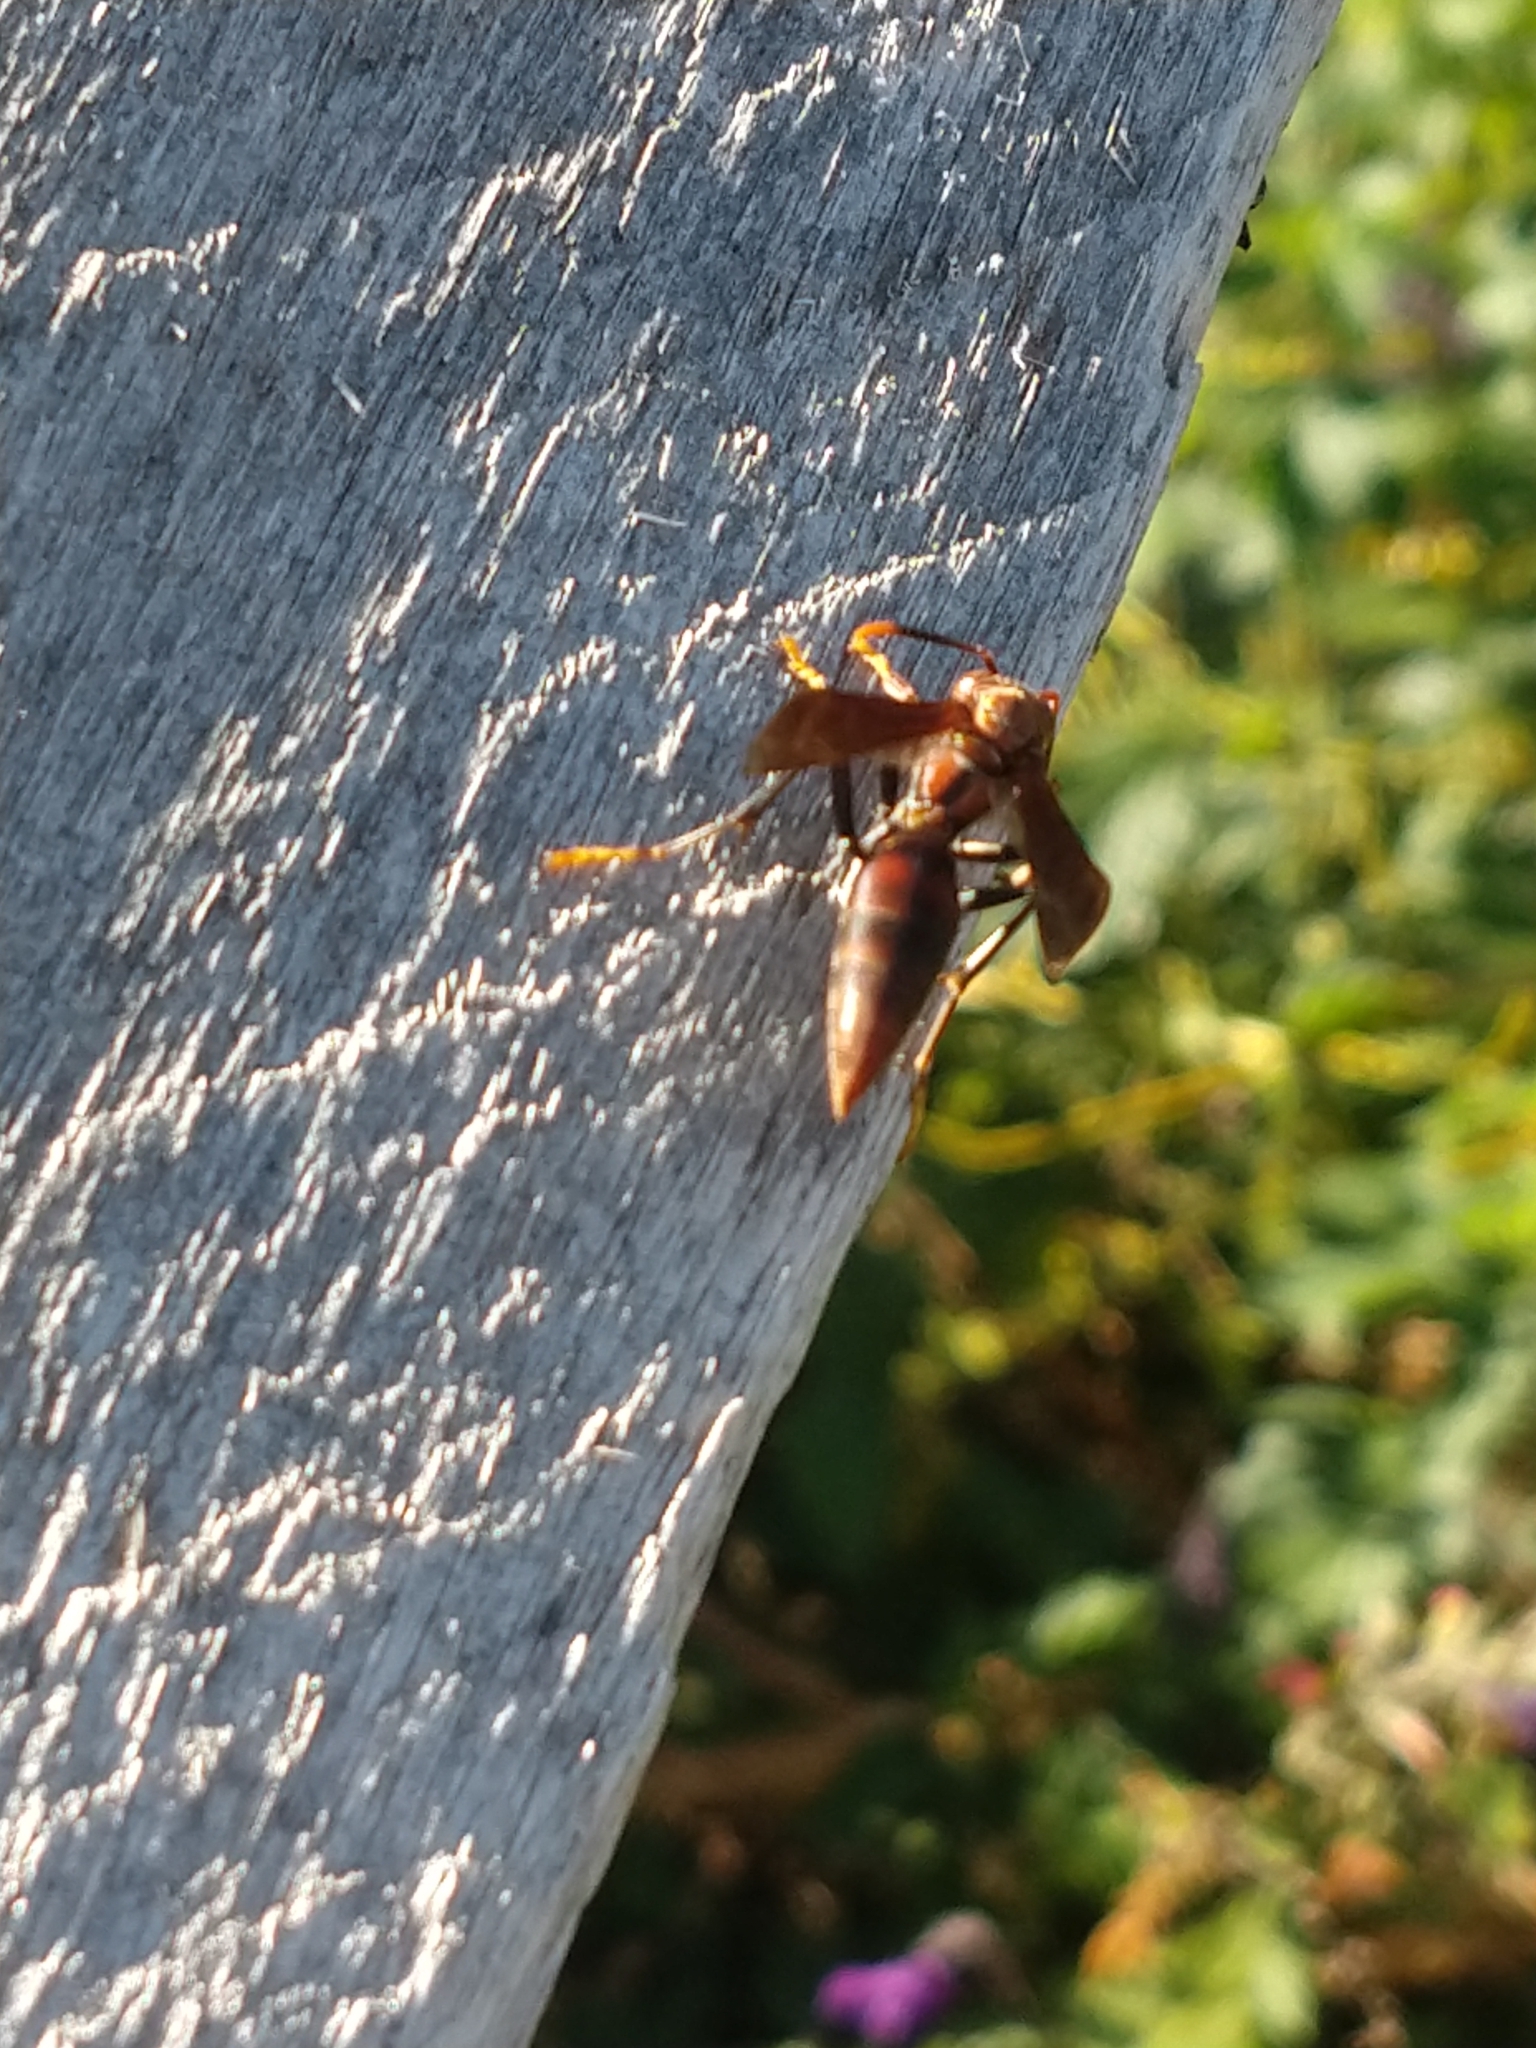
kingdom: Animalia
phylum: Arthropoda
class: Insecta
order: Hymenoptera
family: Pompilidae
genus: Aphanilopterus
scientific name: Aphanilopterus
